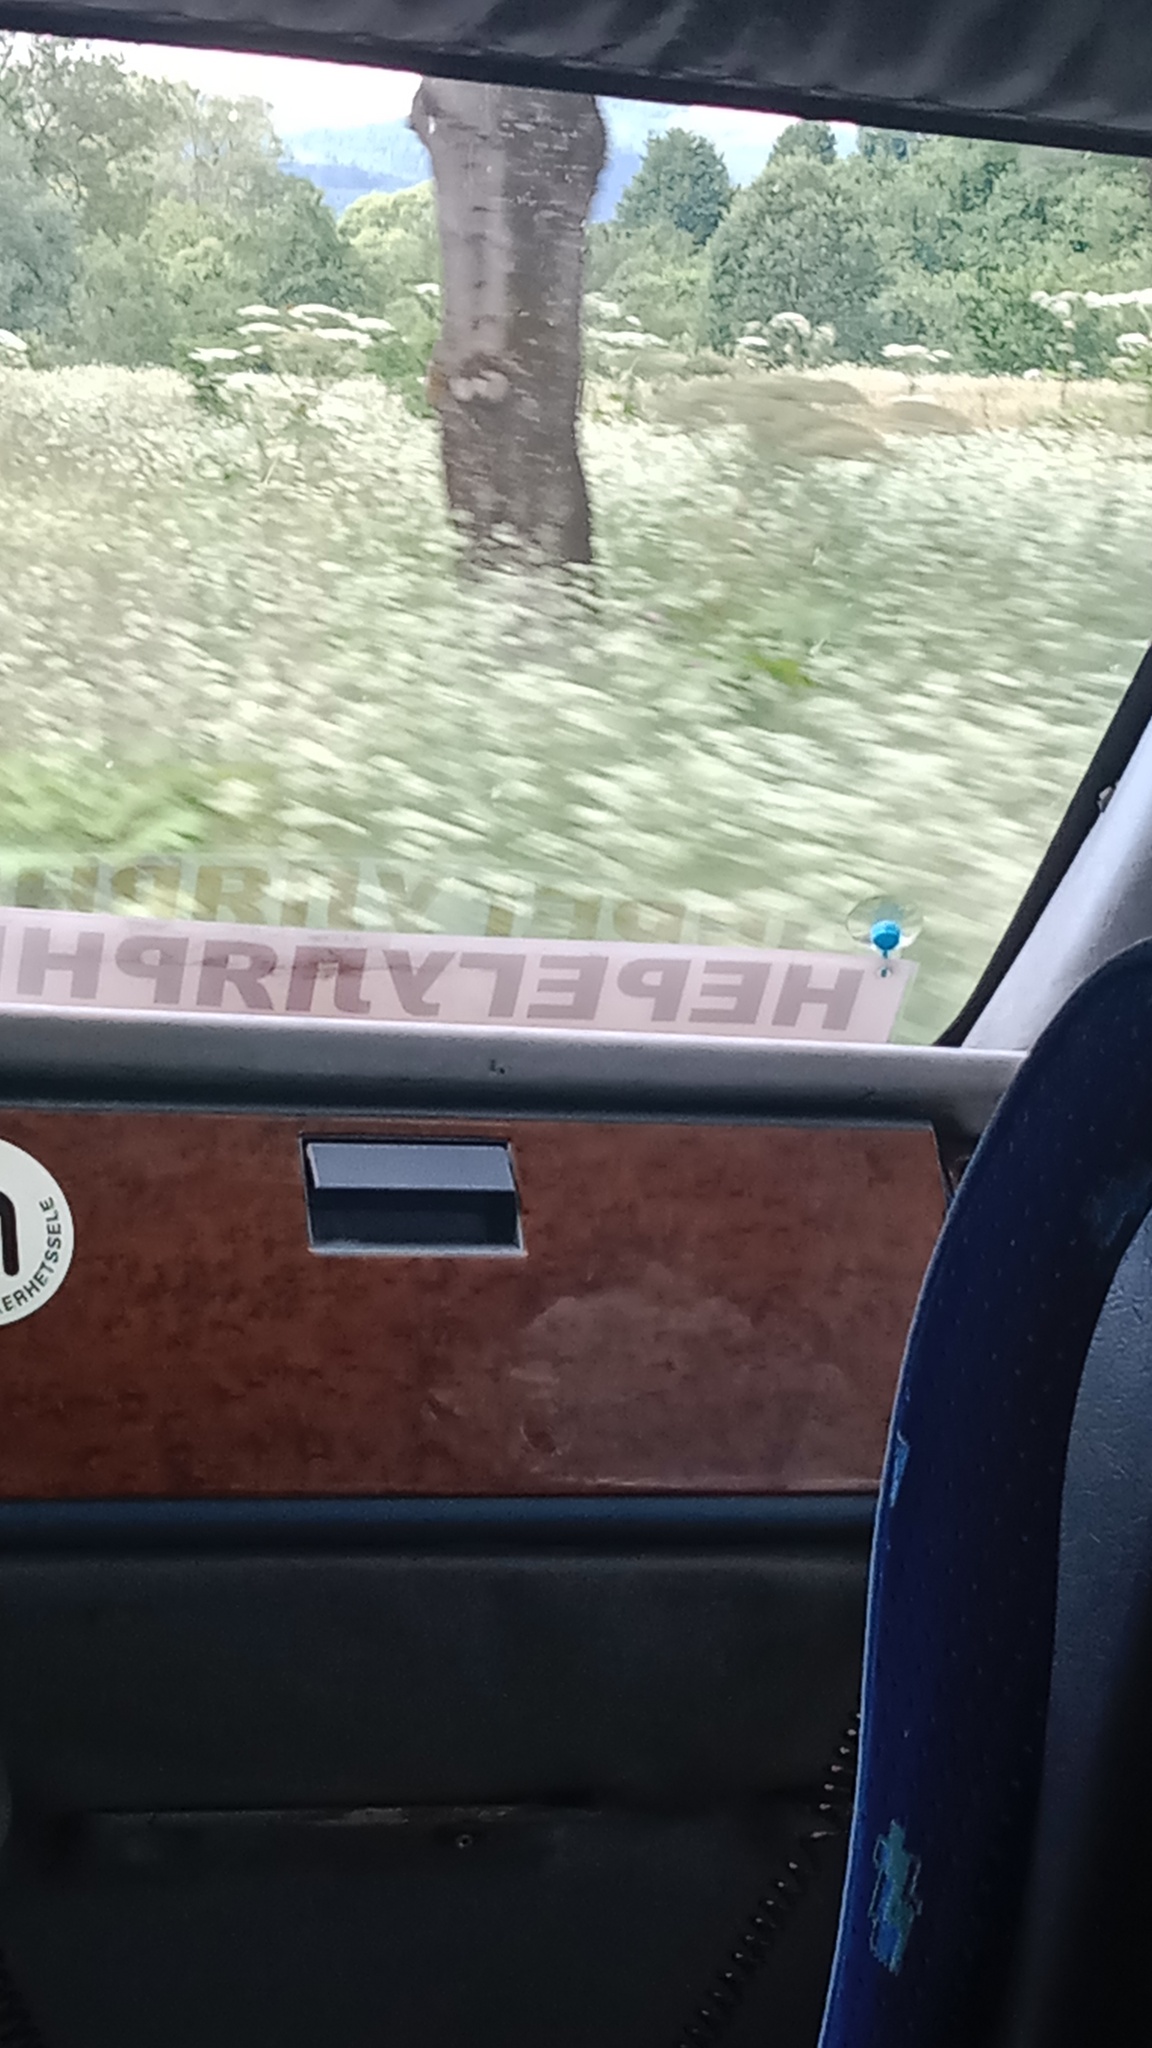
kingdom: Plantae
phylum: Tracheophyta
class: Magnoliopsida
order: Apiales
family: Apiaceae
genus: Heracleum
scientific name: Heracleum sosnowskyi
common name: Sosnowsky's hogweed
